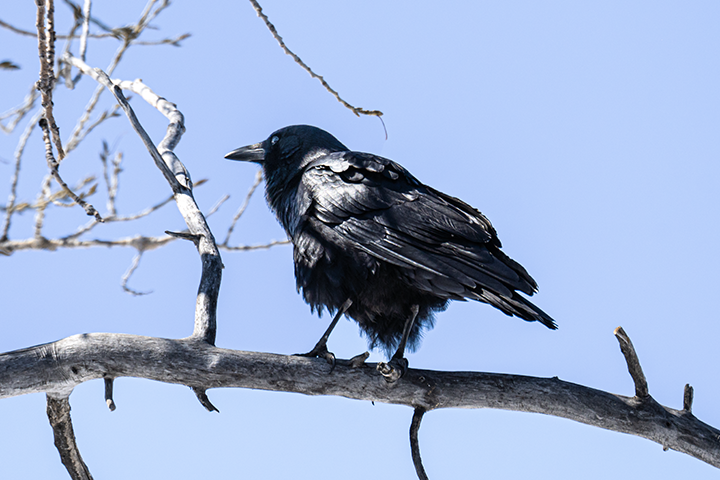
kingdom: Animalia
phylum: Chordata
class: Aves
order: Passeriformes
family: Corvidae
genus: Corvus
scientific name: Corvus brachyrhynchos
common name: American crow
